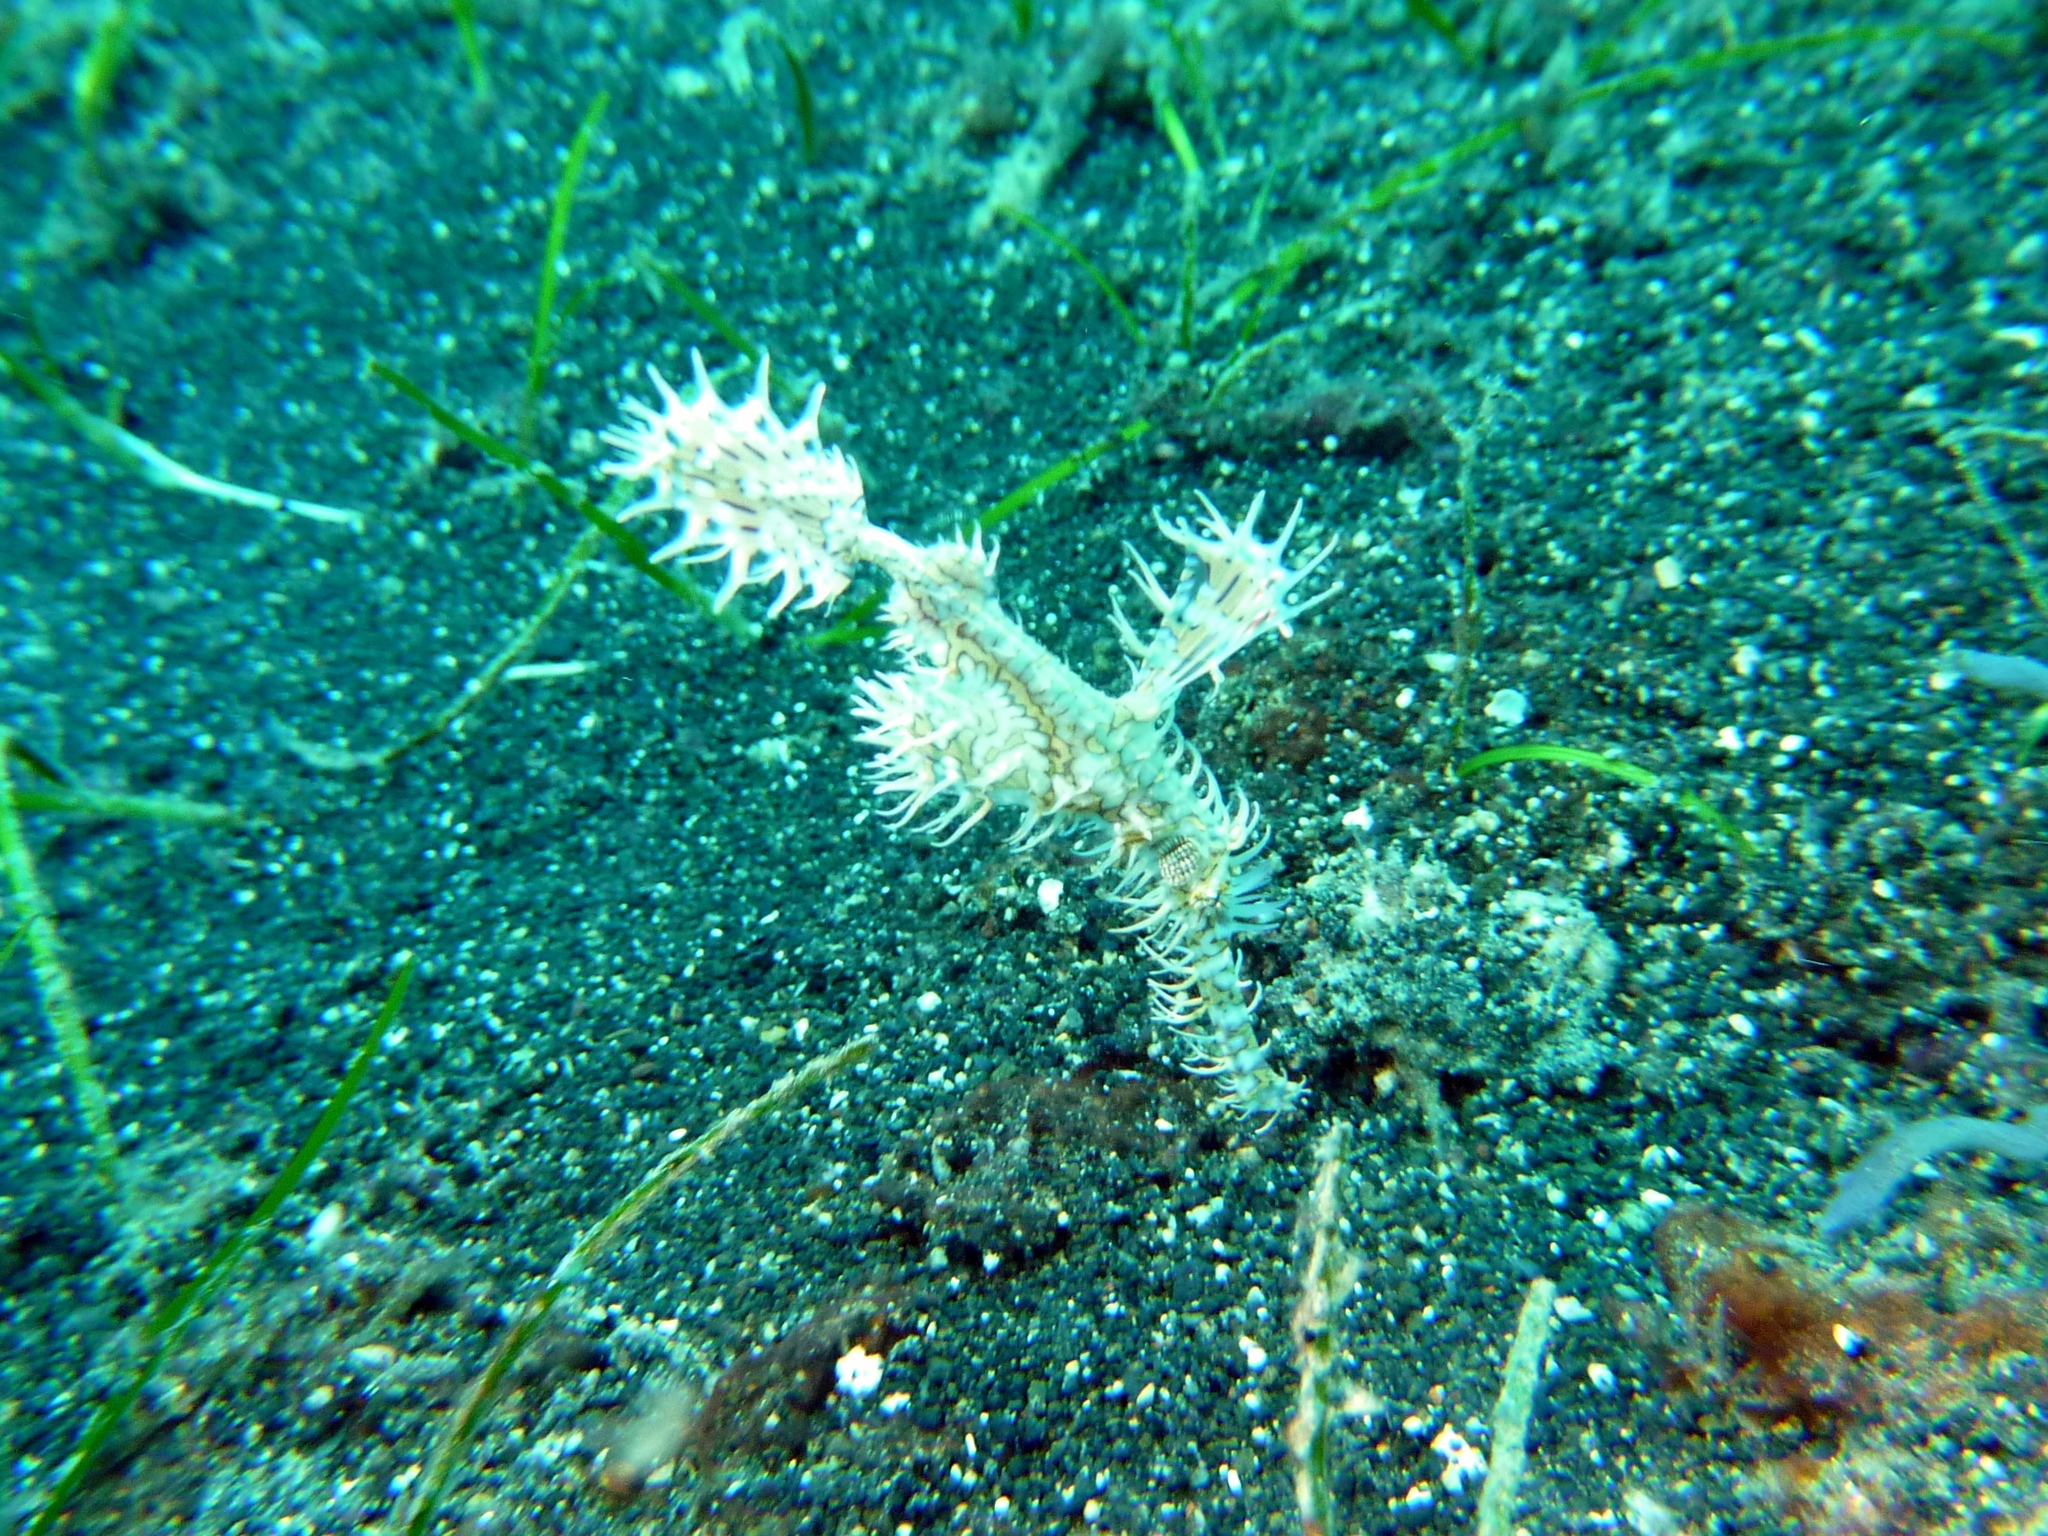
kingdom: Animalia
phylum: Chordata
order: Syngnathiformes
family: Solenostomidae
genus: Solenostomus
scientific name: Solenostomus paradoxus
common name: Ghost pipefish
